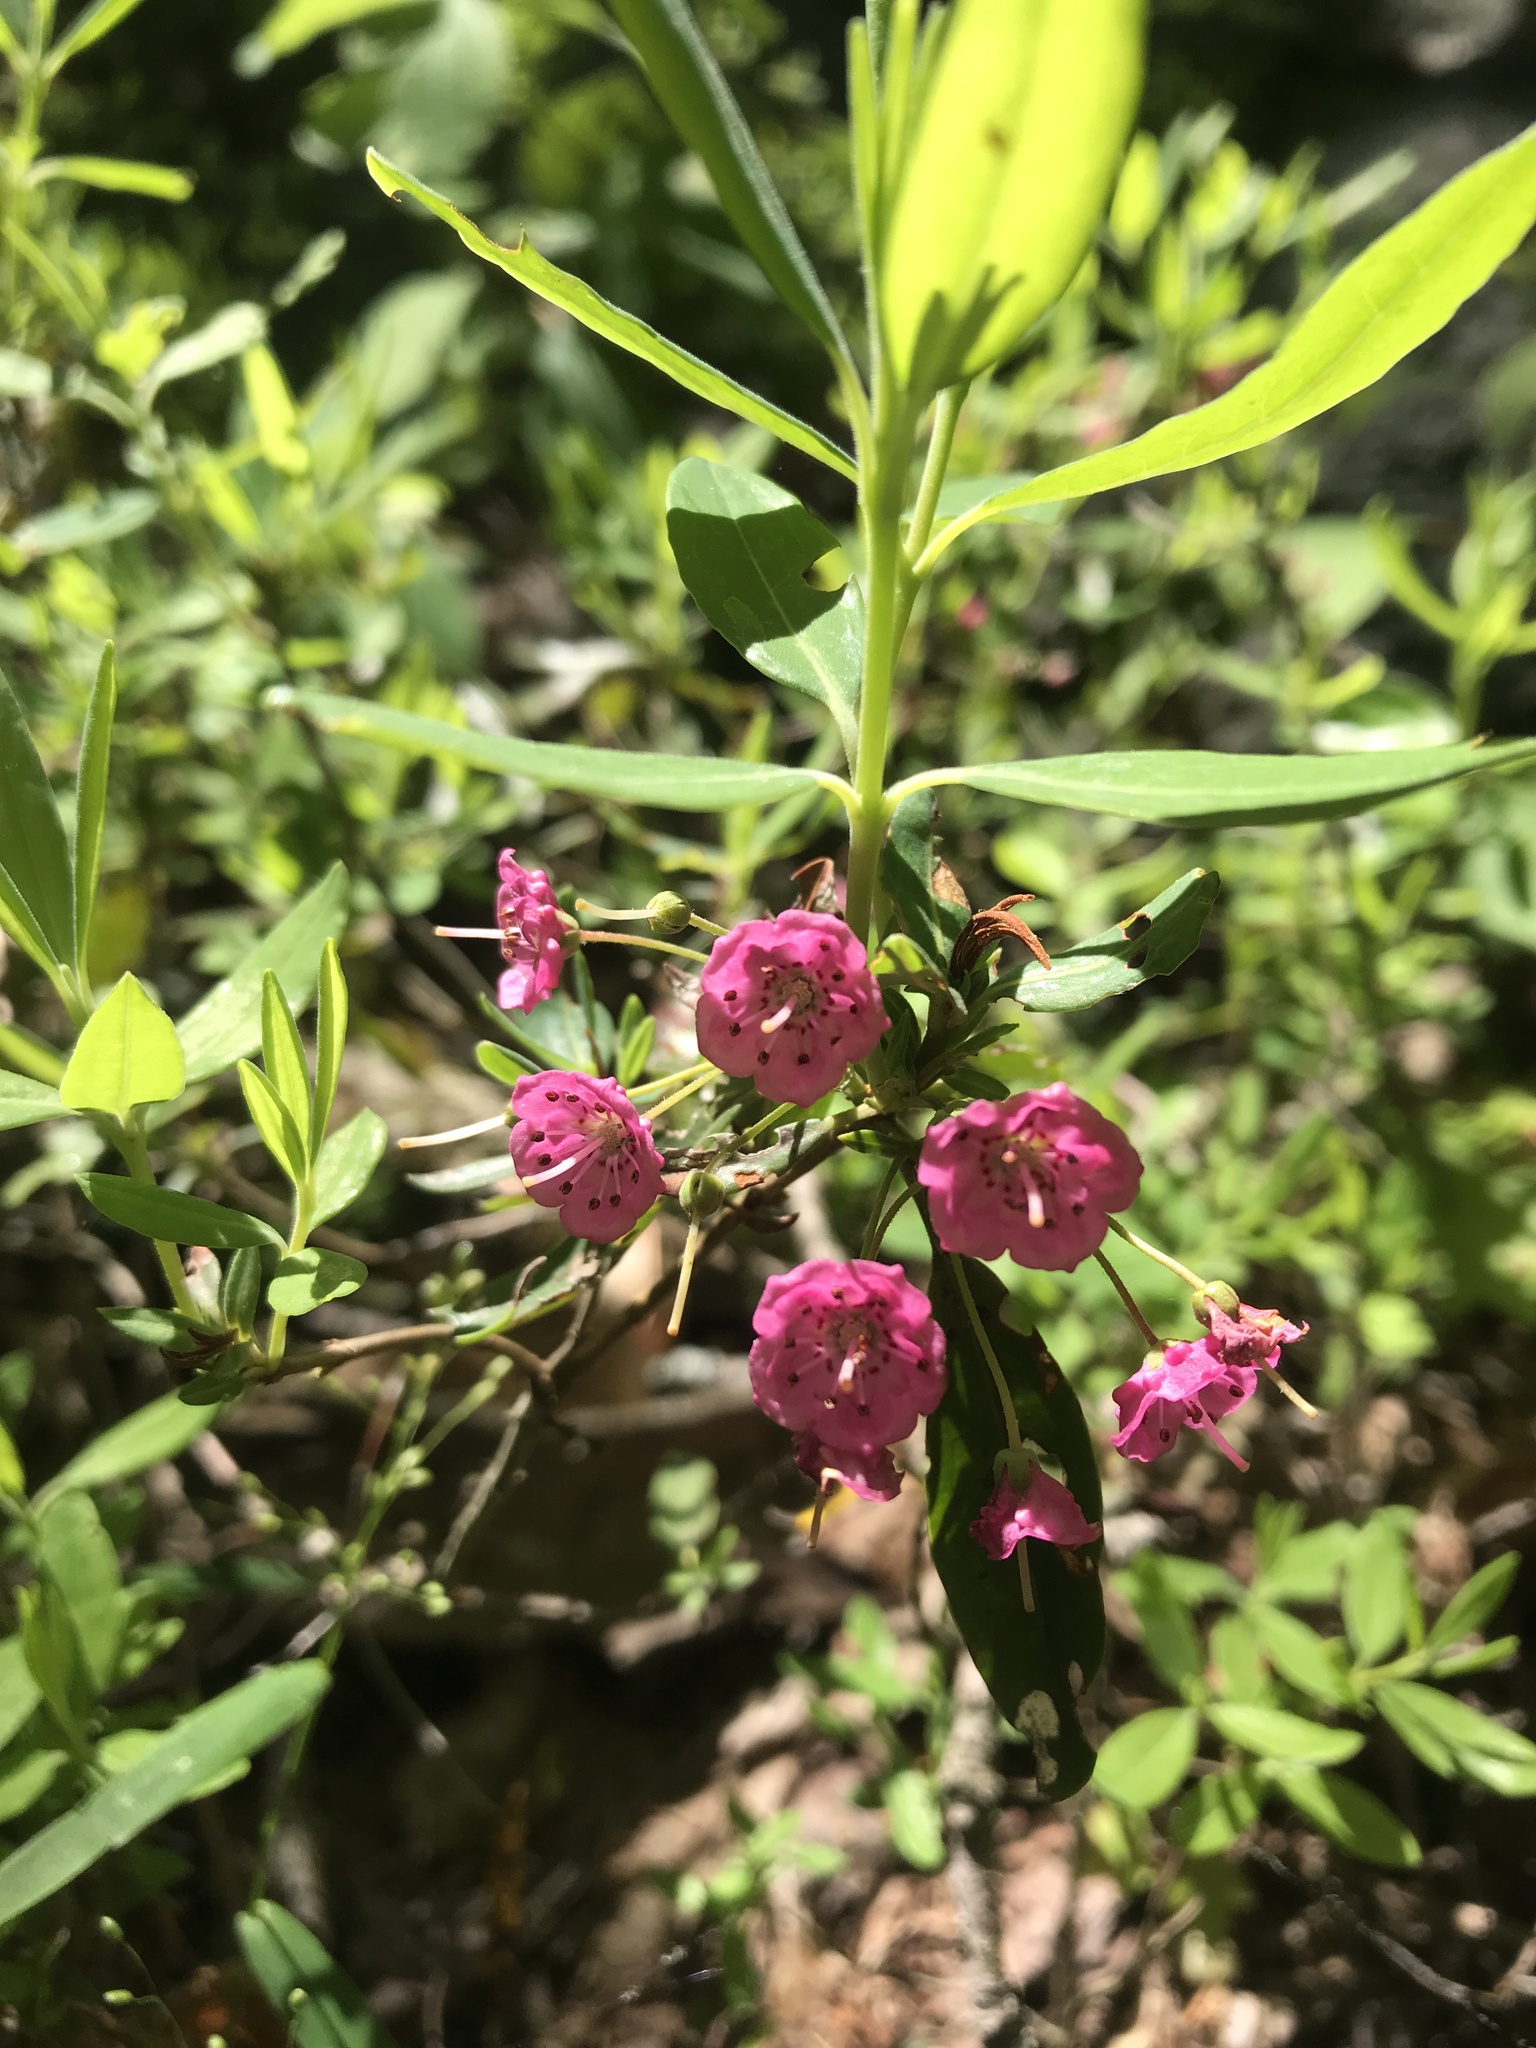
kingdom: Plantae
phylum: Tracheophyta
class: Magnoliopsida
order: Ericales
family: Ericaceae
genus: Kalmia
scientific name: Kalmia angustifolia
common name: Sheep-laurel
